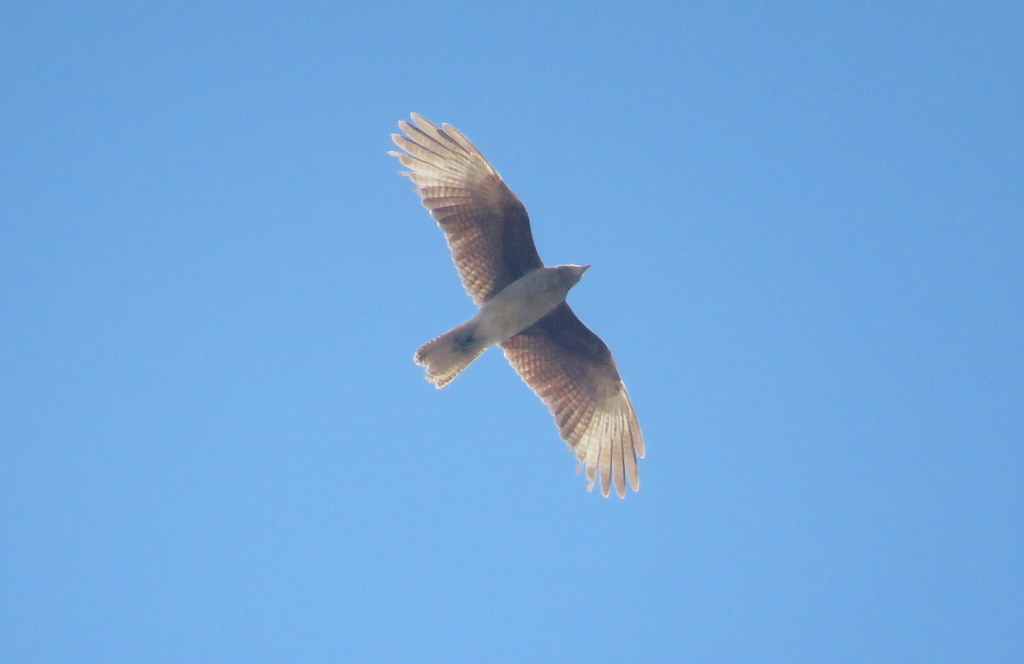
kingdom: Animalia
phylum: Chordata
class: Aves
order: Falconiformes
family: Falconidae
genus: Daptrius
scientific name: Daptrius
